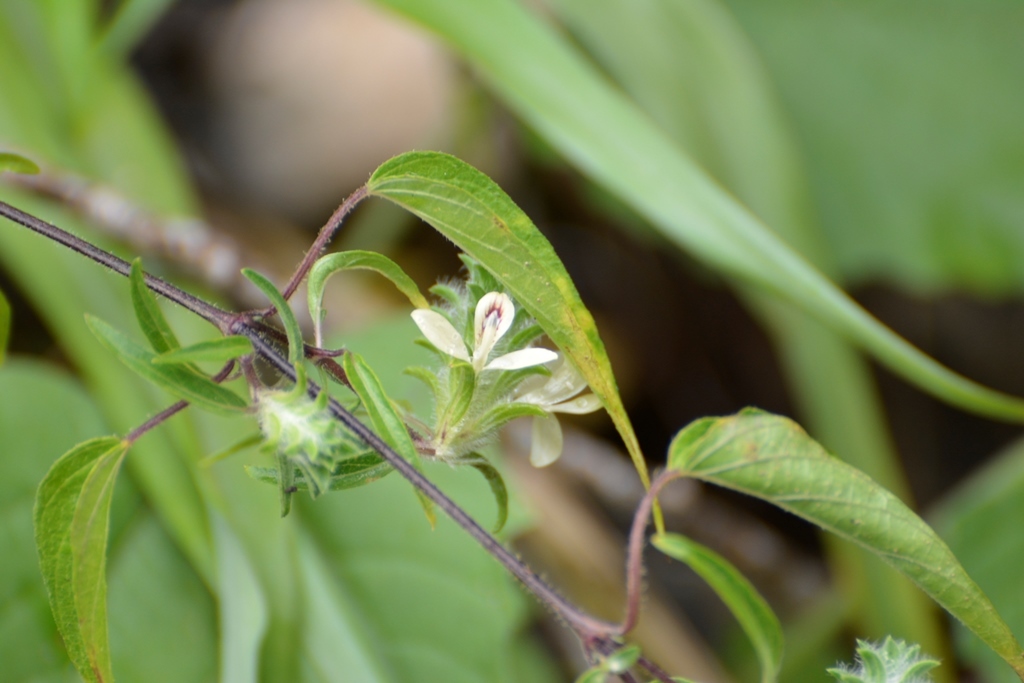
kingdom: Plantae
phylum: Tracheophyta
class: Magnoliopsida
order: Lamiales
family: Acanthaceae
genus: Tetramerium
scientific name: Tetramerium nervosum
